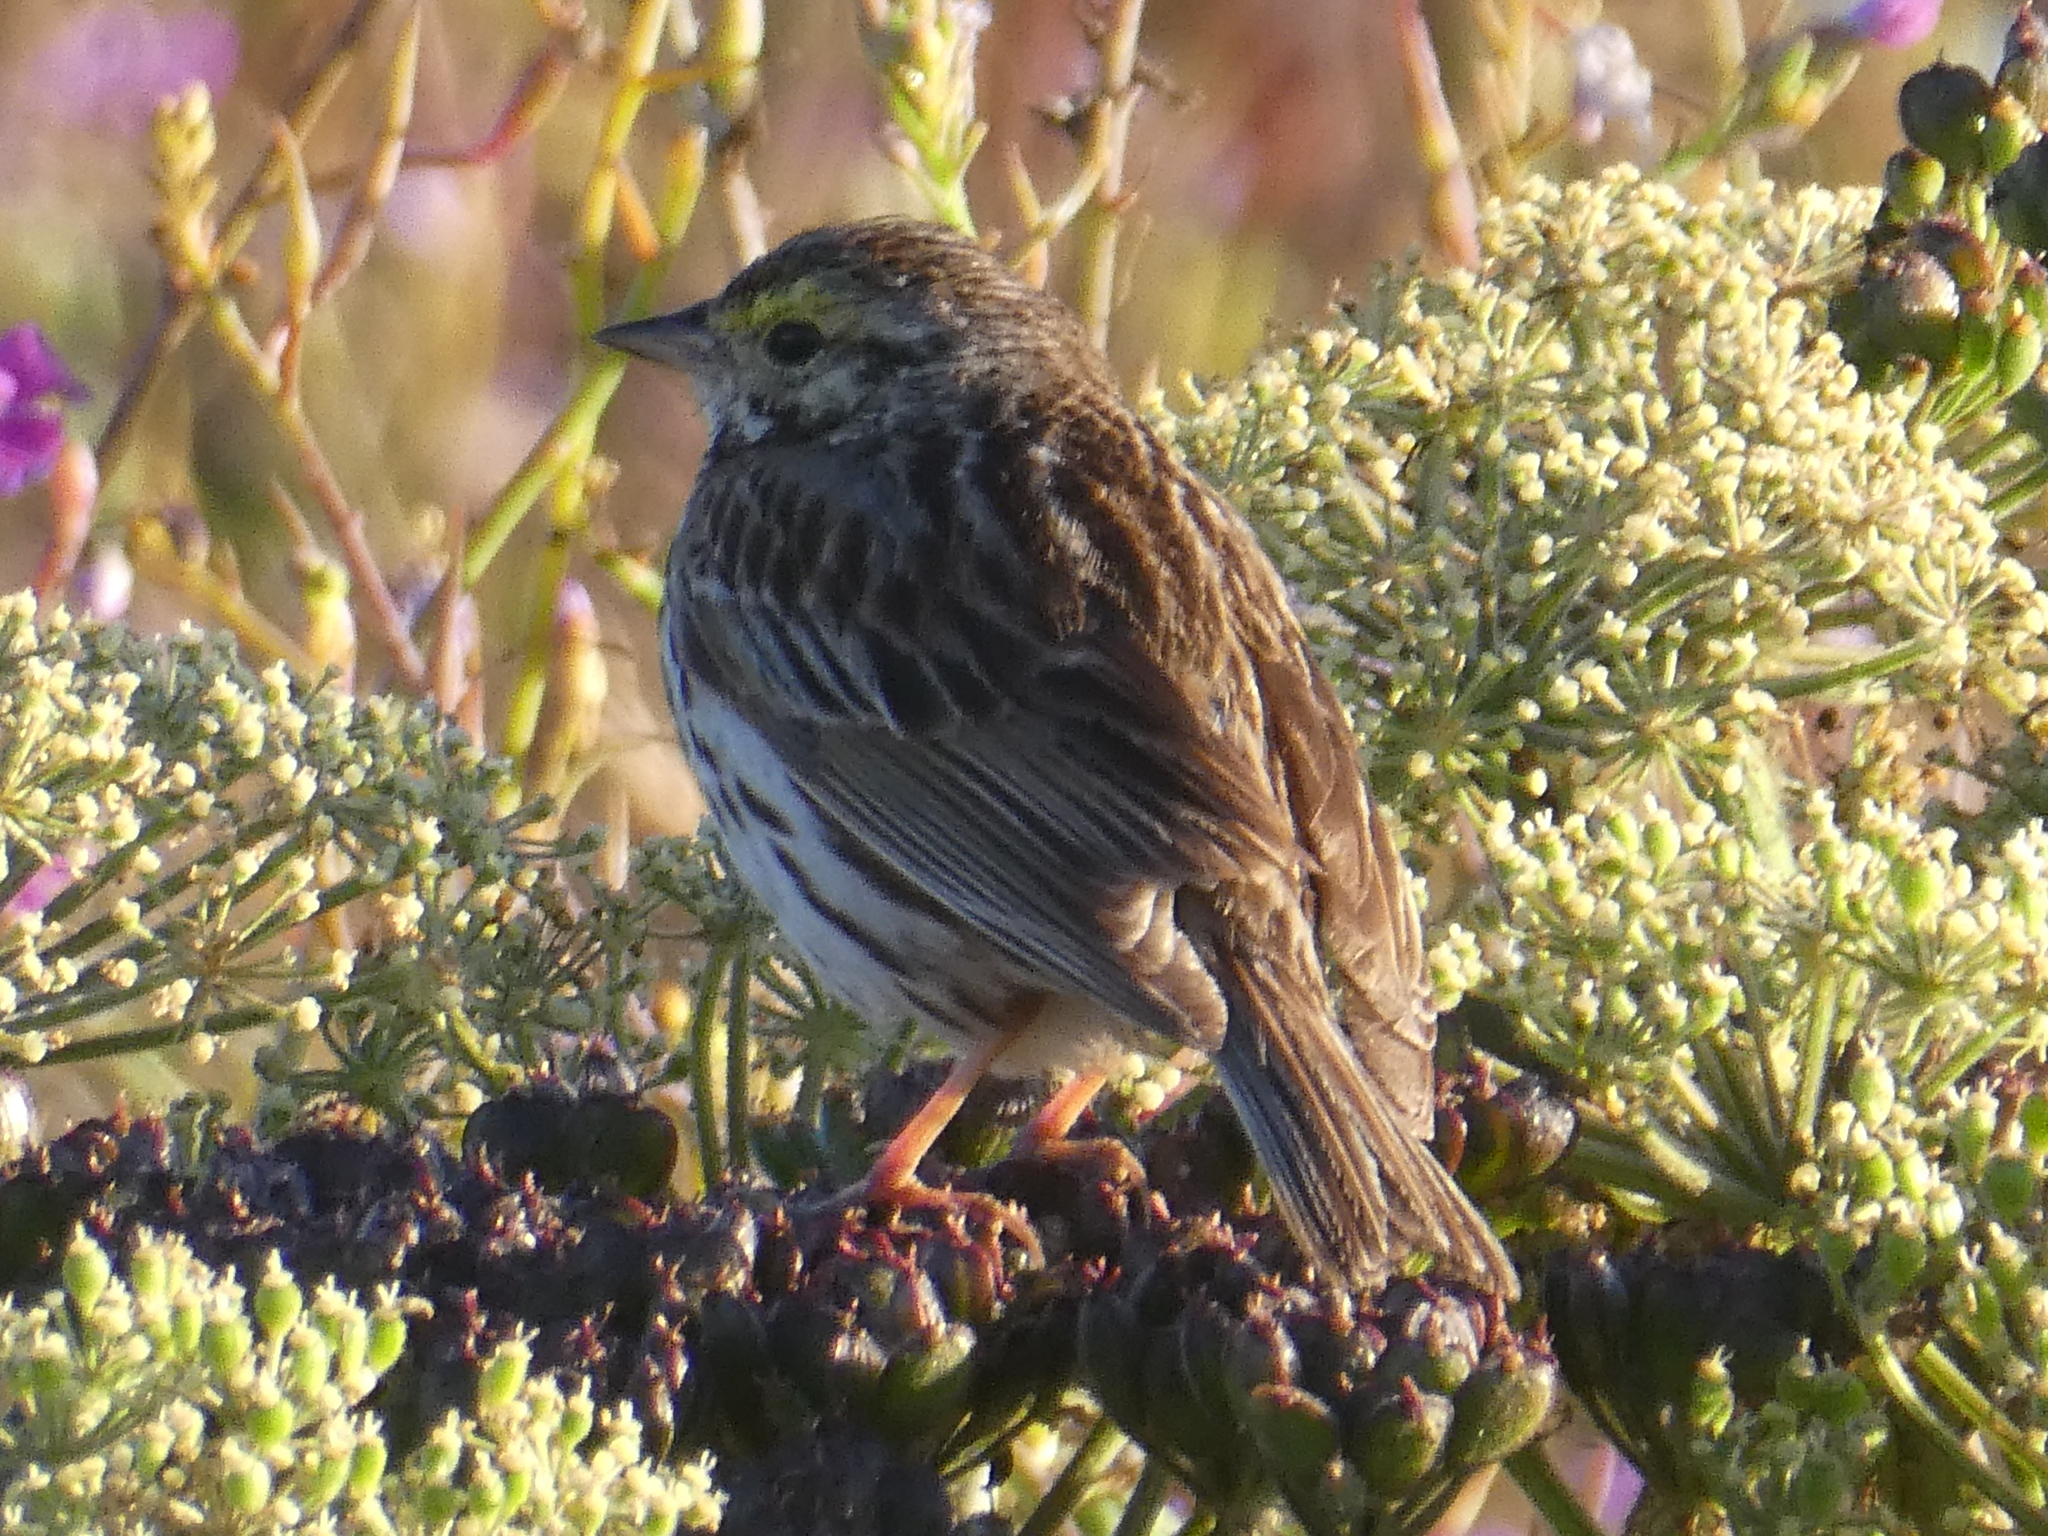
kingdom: Animalia
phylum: Chordata
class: Aves
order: Passeriformes
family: Passerellidae
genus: Passerculus
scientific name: Passerculus sandwichensis
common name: Savannah sparrow
